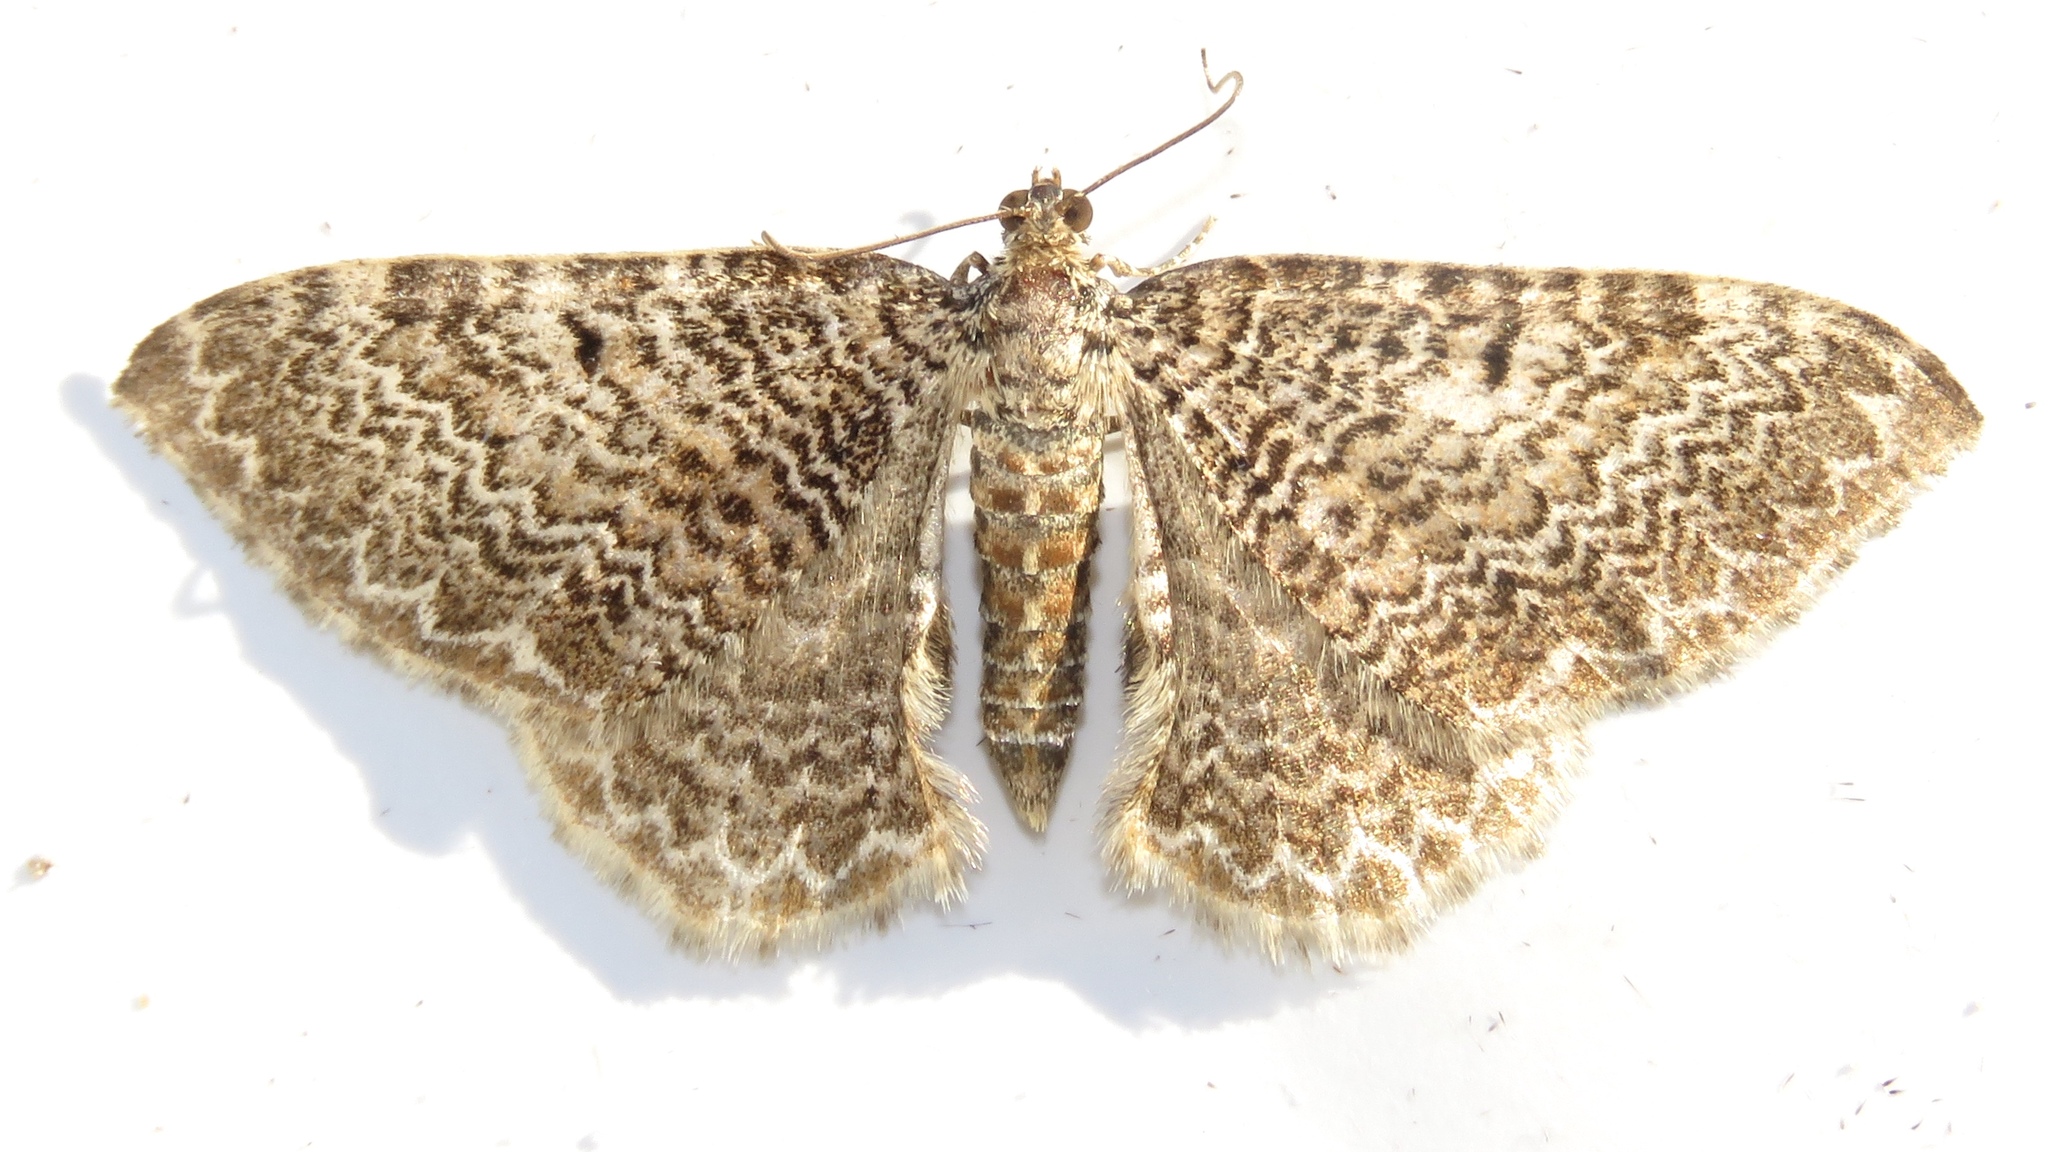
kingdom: Animalia
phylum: Arthropoda
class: Insecta
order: Lepidoptera
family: Geometridae
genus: Rheumaptera
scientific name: Rheumaptera
